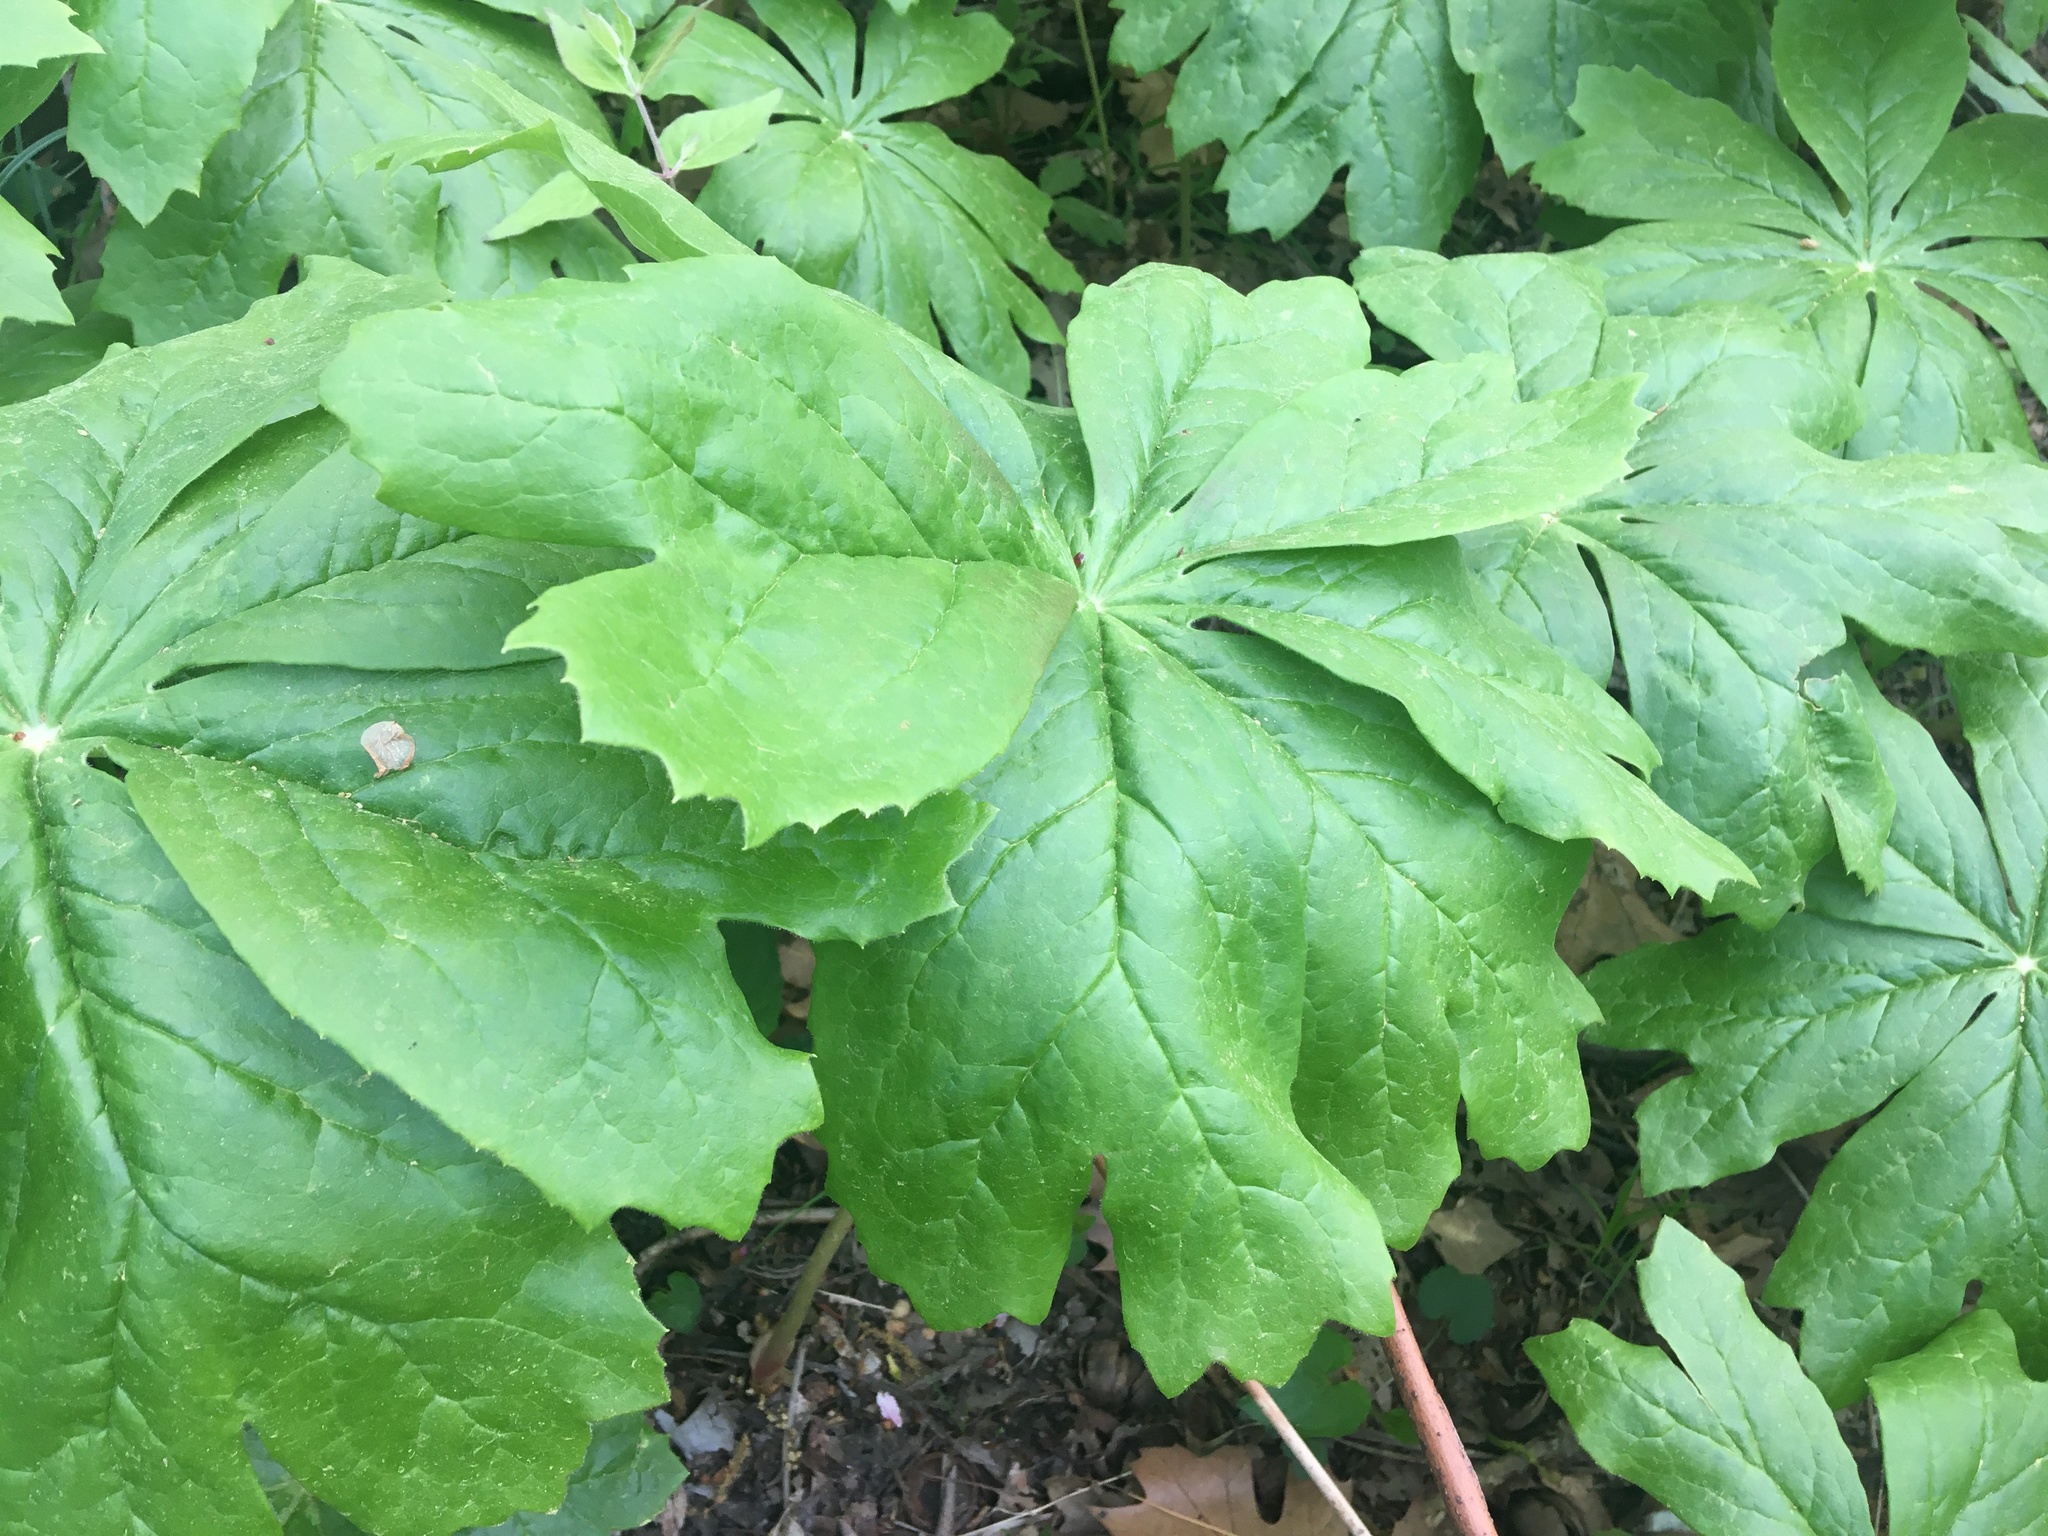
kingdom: Plantae
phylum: Tracheophyta
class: Magnoliopsida
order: Ranunculales
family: Berberidaceae
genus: Podophyllum
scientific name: Podophyllum peltatum
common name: Wild mandrake
